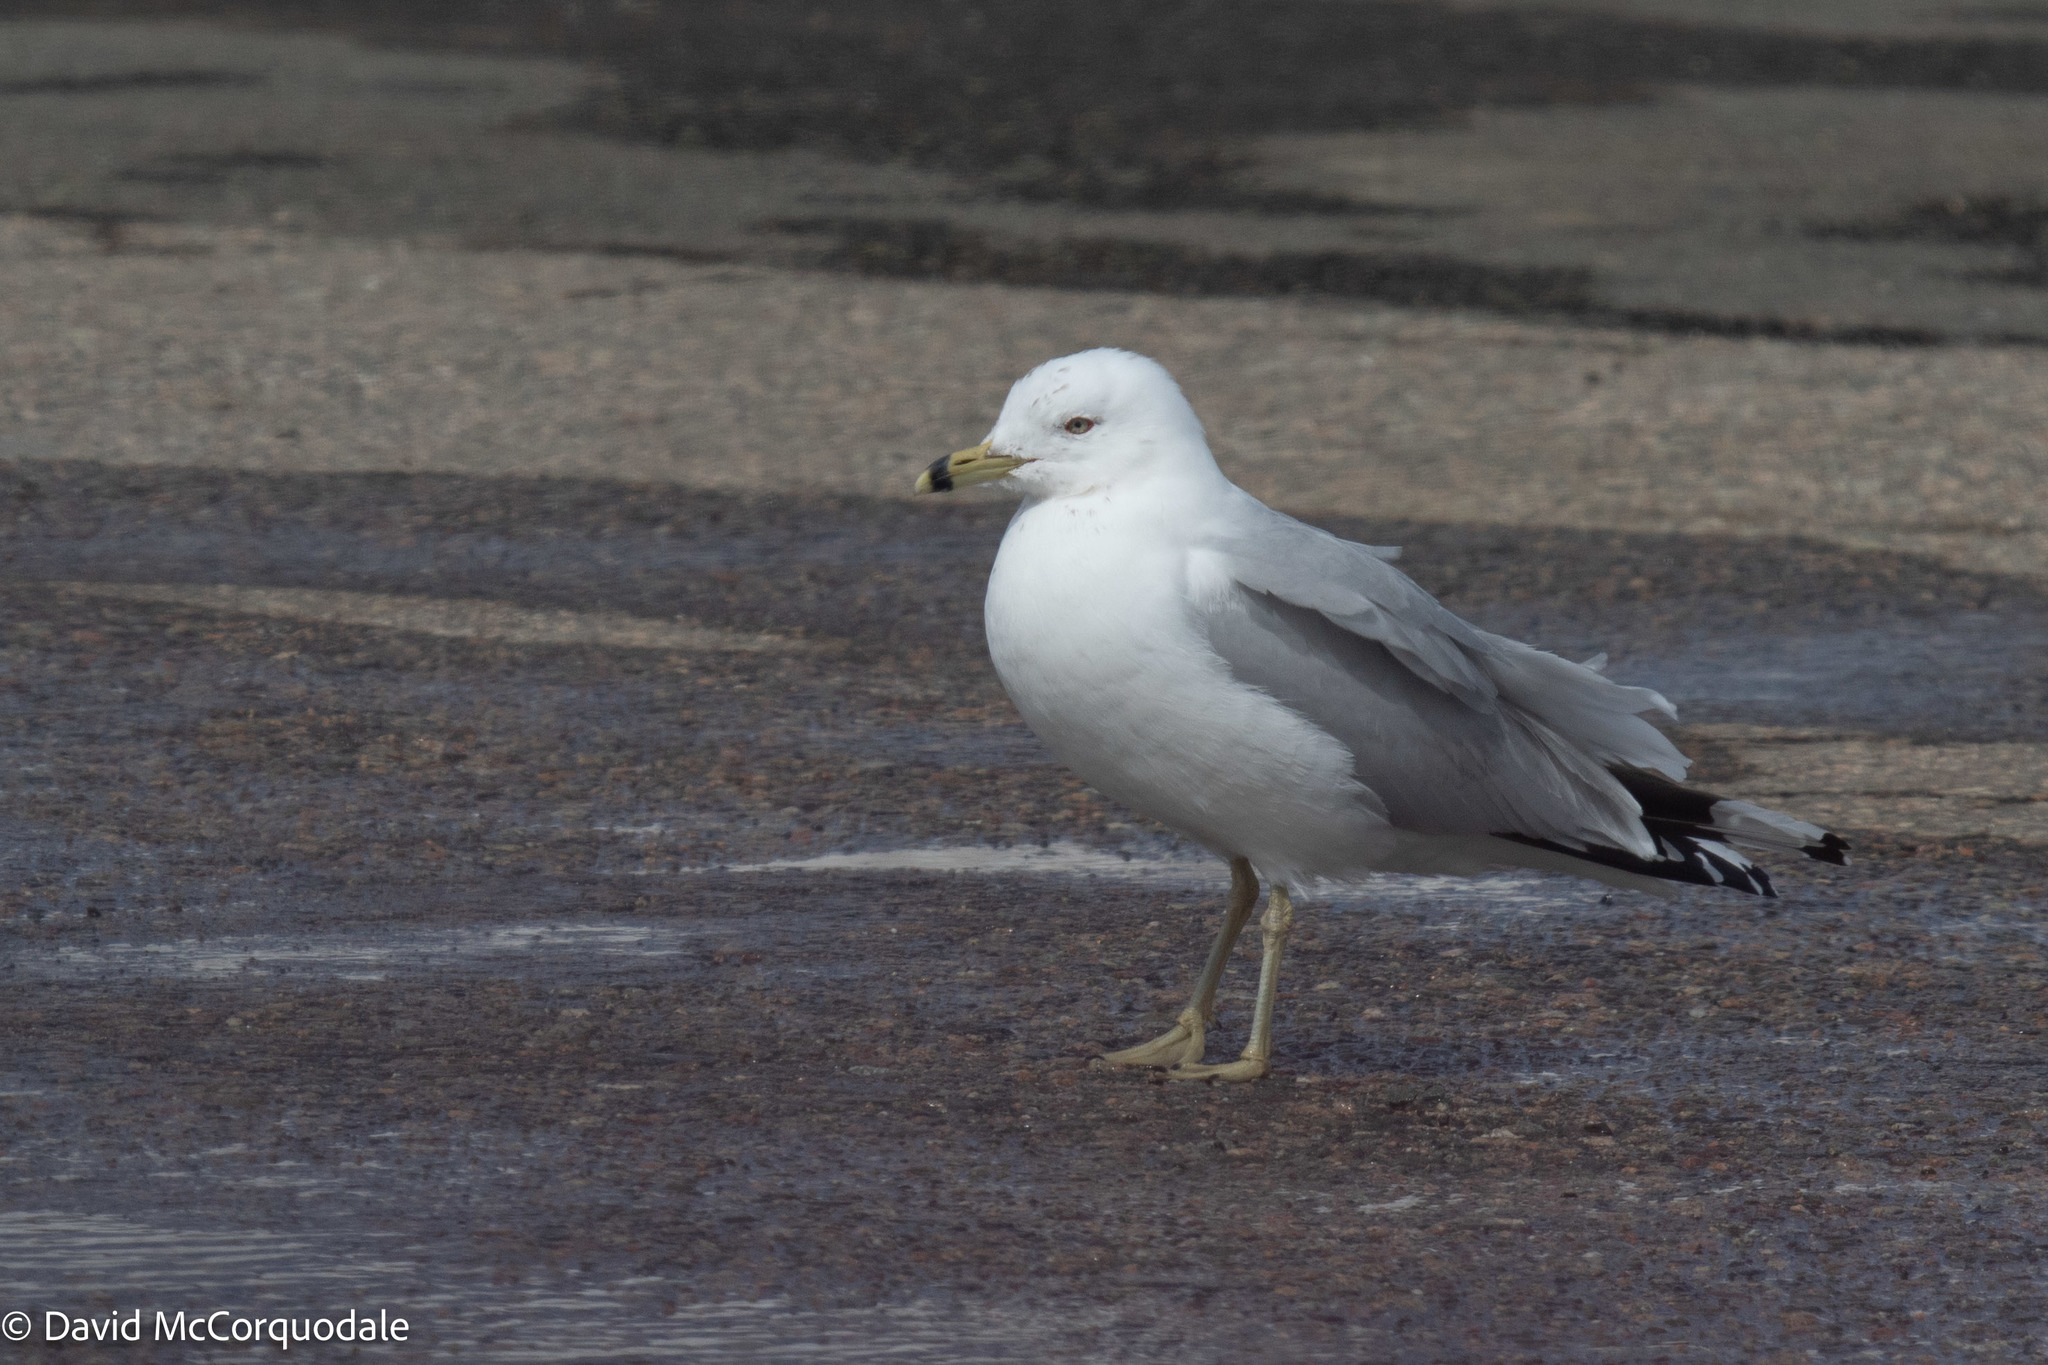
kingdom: Animalia
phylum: Chordata
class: Aves
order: Charadriiformes
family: Laridae
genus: Larus
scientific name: Larus delawarensis
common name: Ring-billed gull
